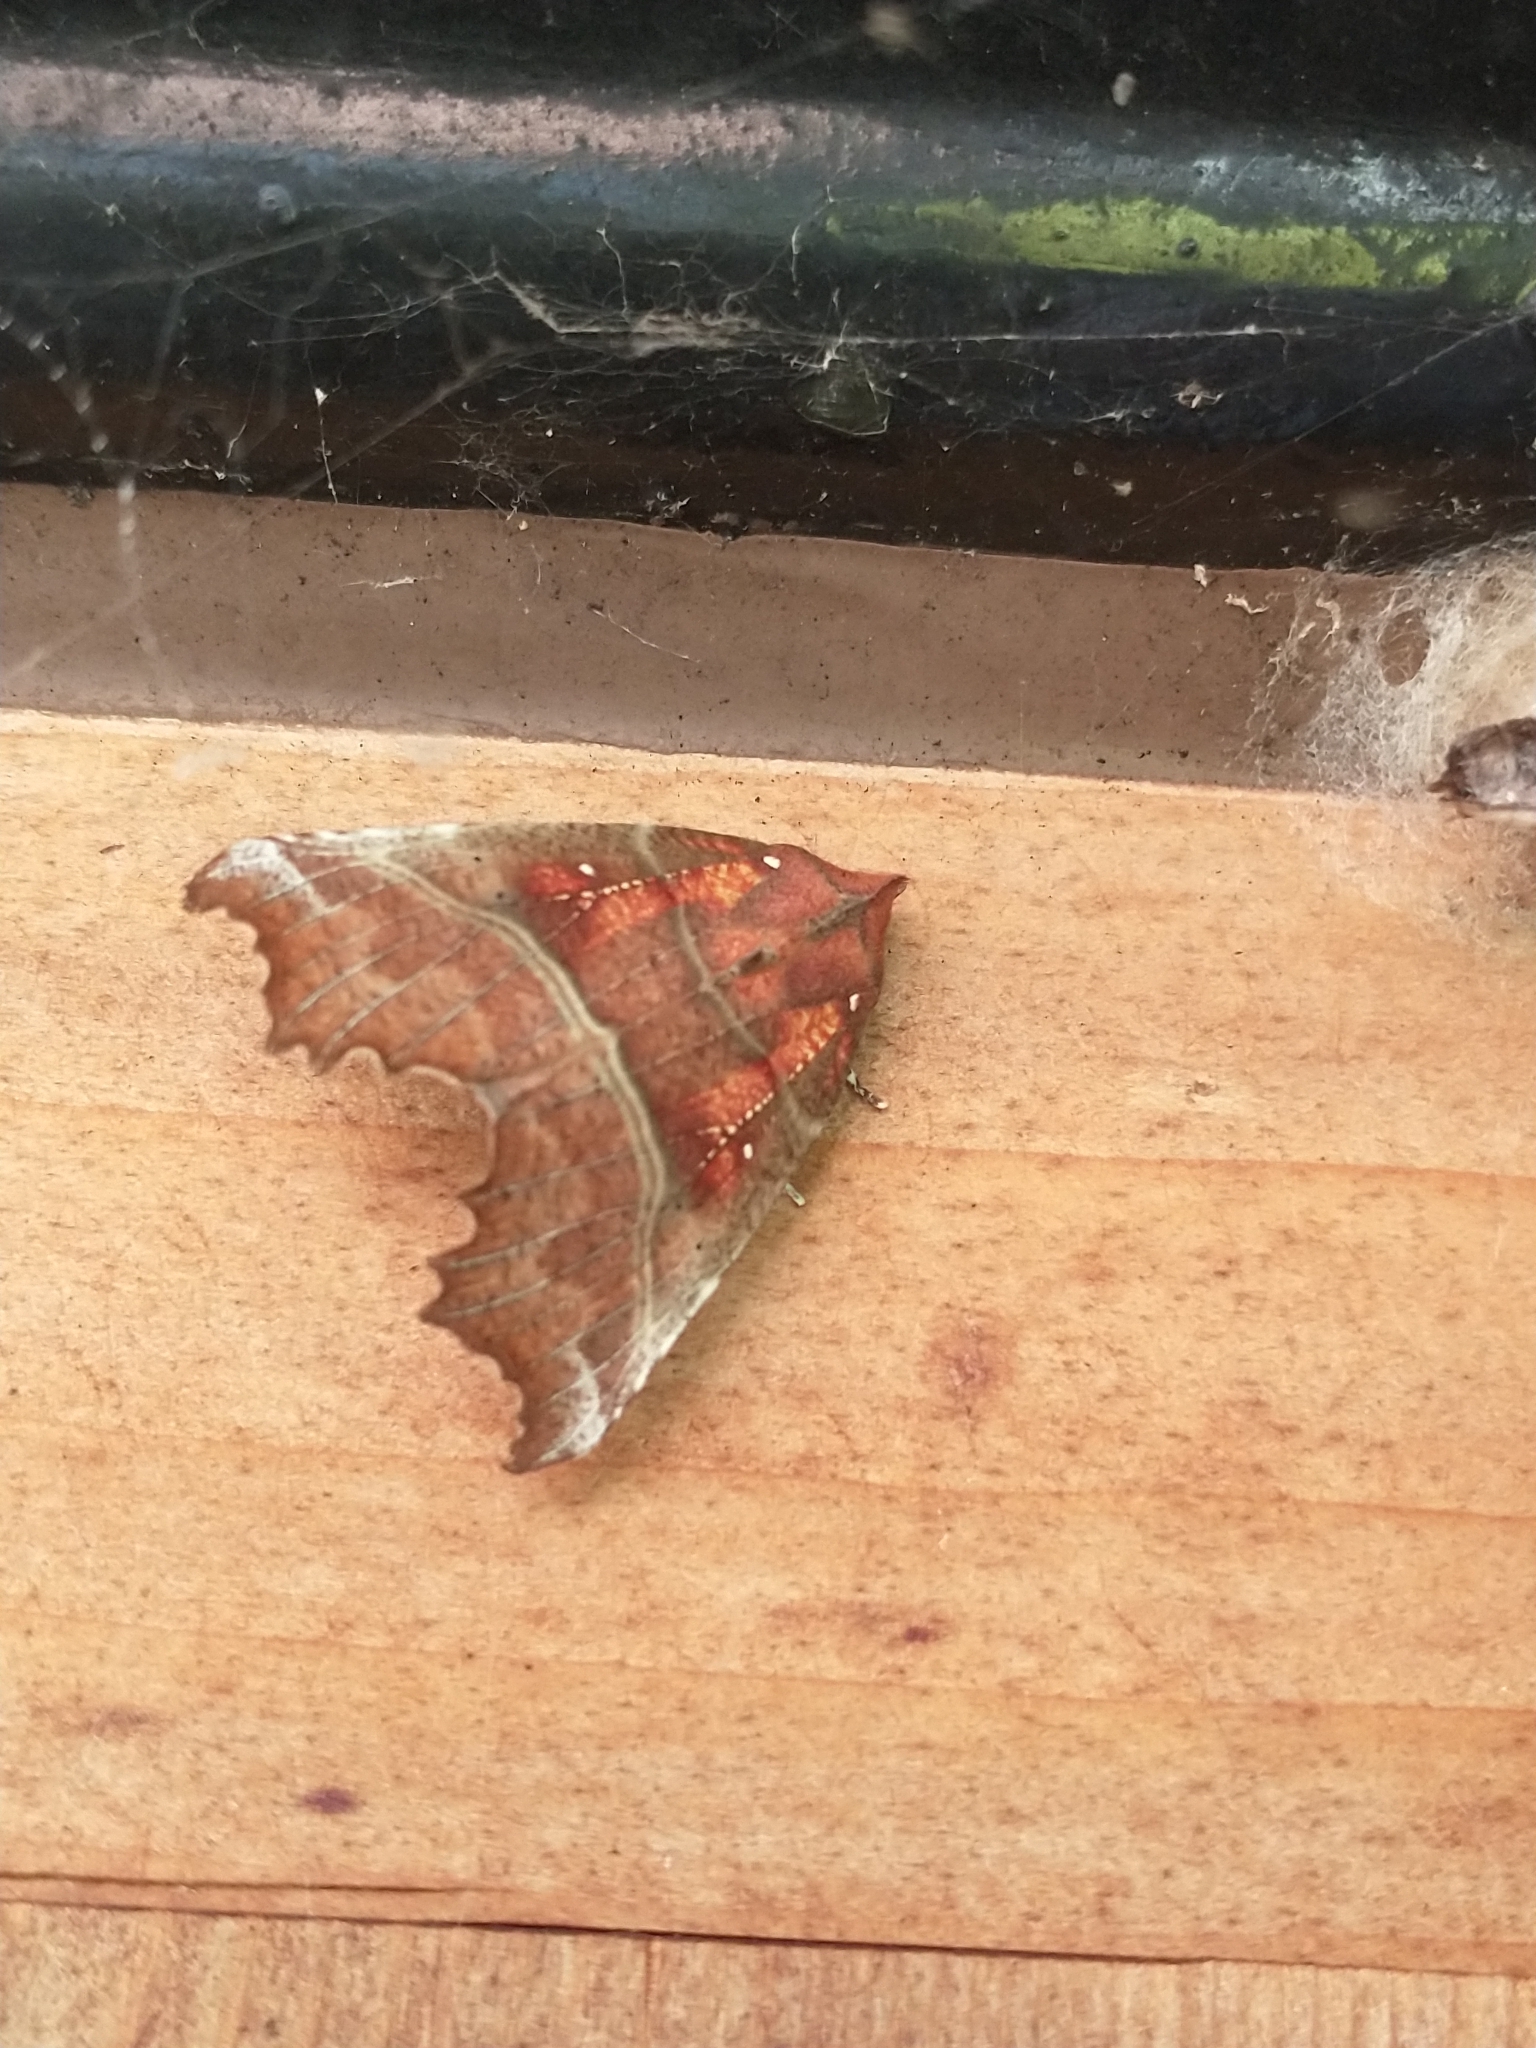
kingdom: Animalia
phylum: Arthropoda
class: Insecta
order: Lepidoptera
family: Erebidae
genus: Scoliopteryx
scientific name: Scoliopteryx libatrix
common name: Herald
